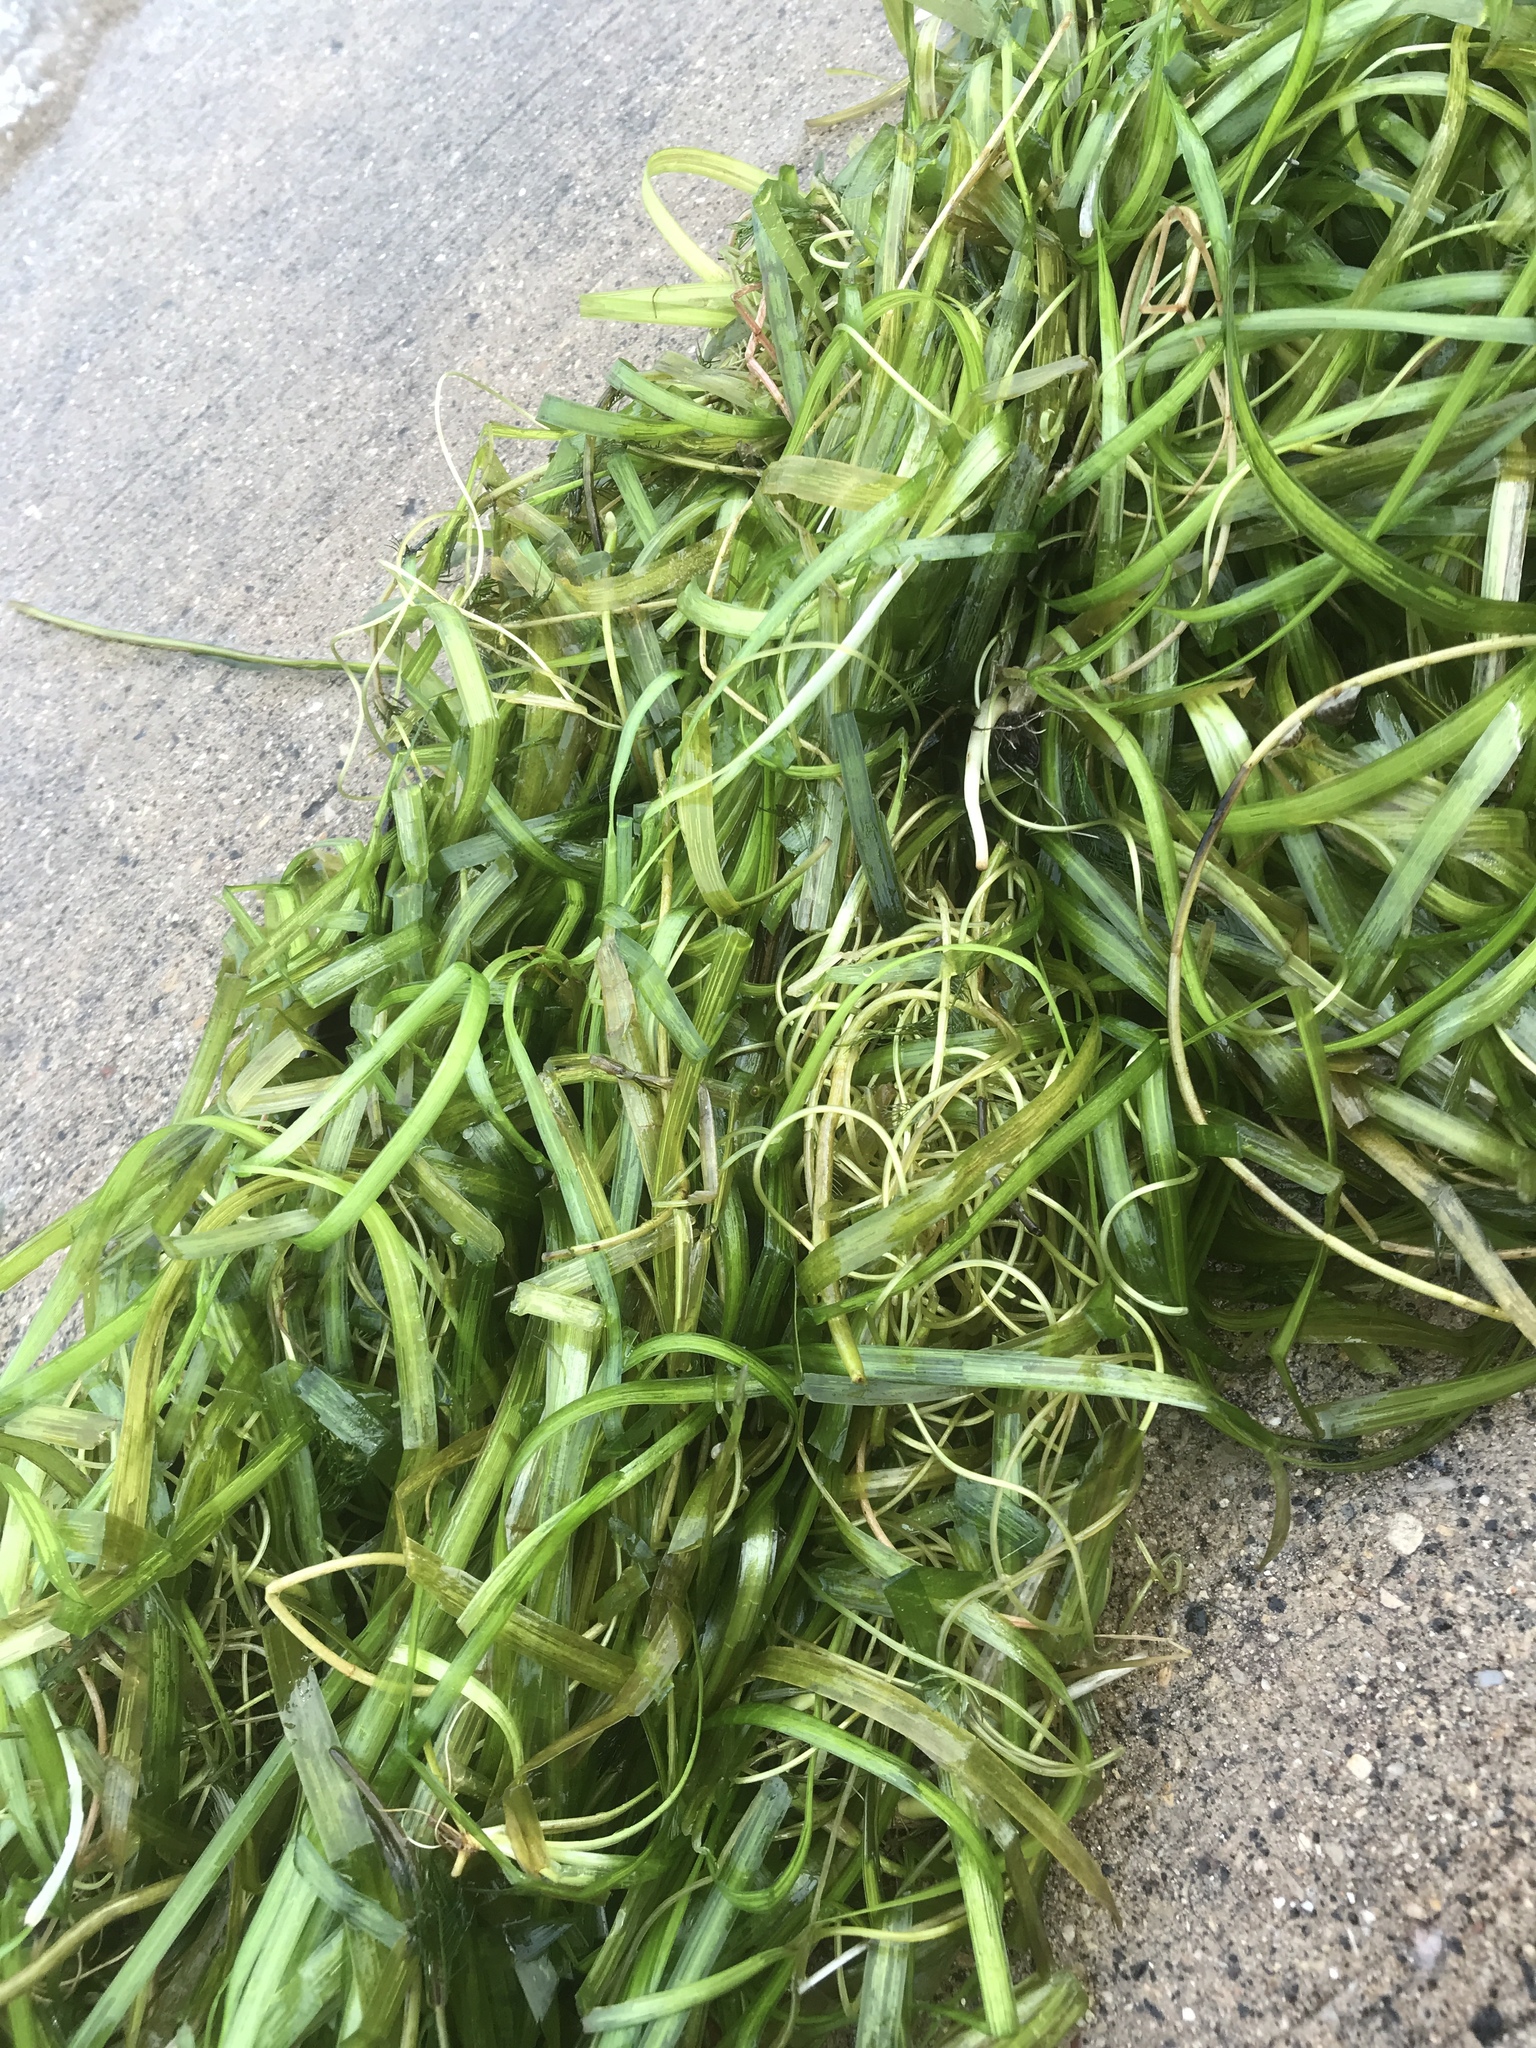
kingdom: Plantae
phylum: Tracheophyta
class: Liliopsida
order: Alismatales
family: Hydrocharitaceae
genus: Vallisneria
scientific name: Vallisneria americana
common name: American eelgrass
